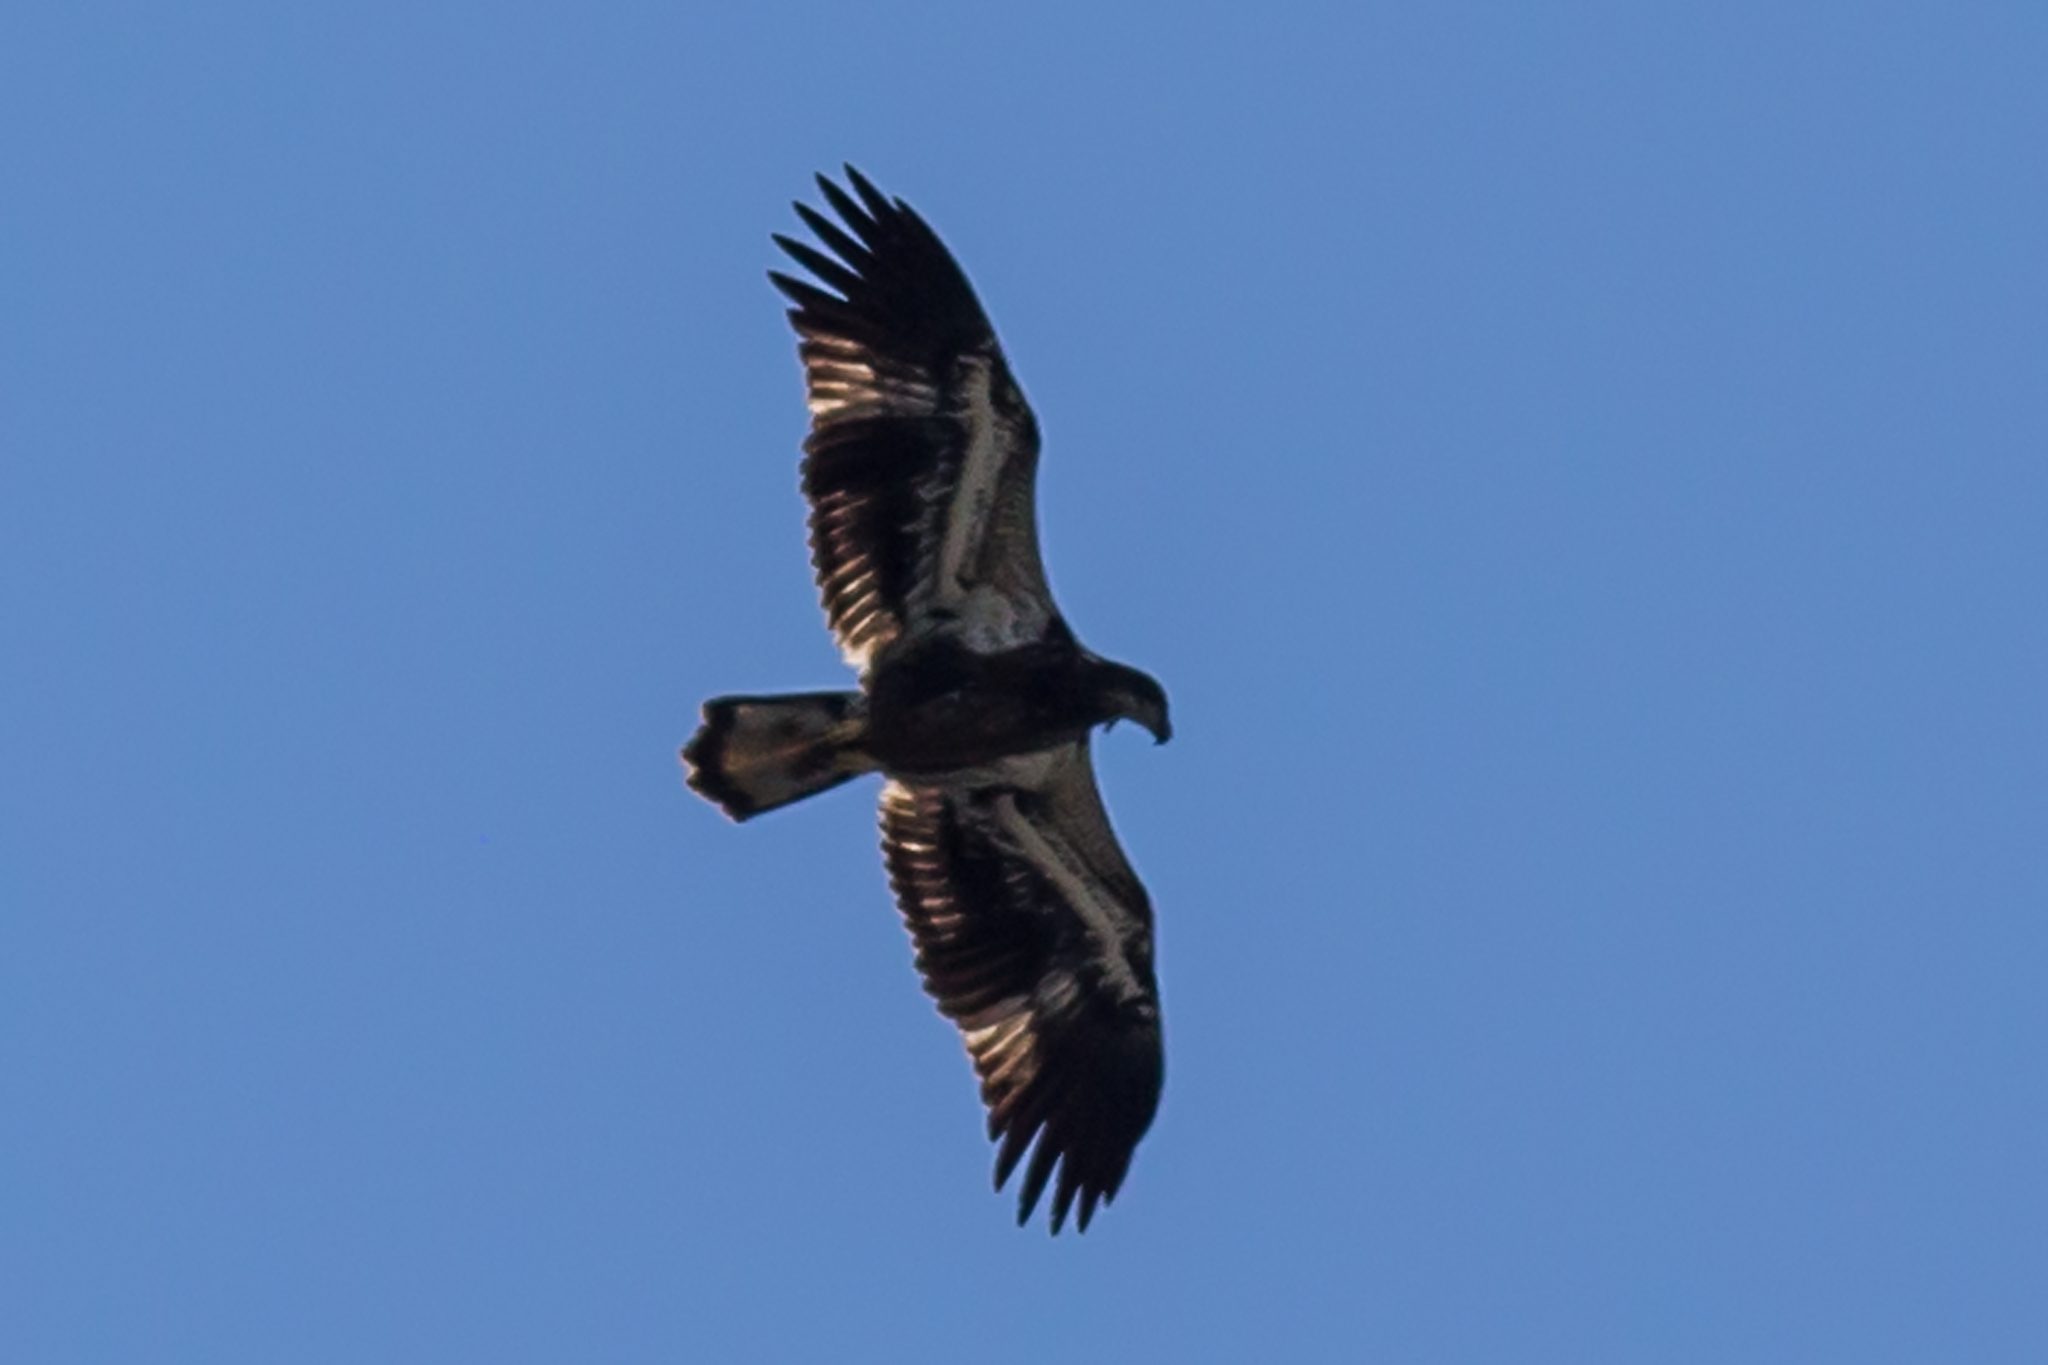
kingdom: Animalia
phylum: Chordata
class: Aves
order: Accipitriformes
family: Accipitridae
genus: Haliaeetus
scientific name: Haliaeetus leucocephalus
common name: Bald eagle
